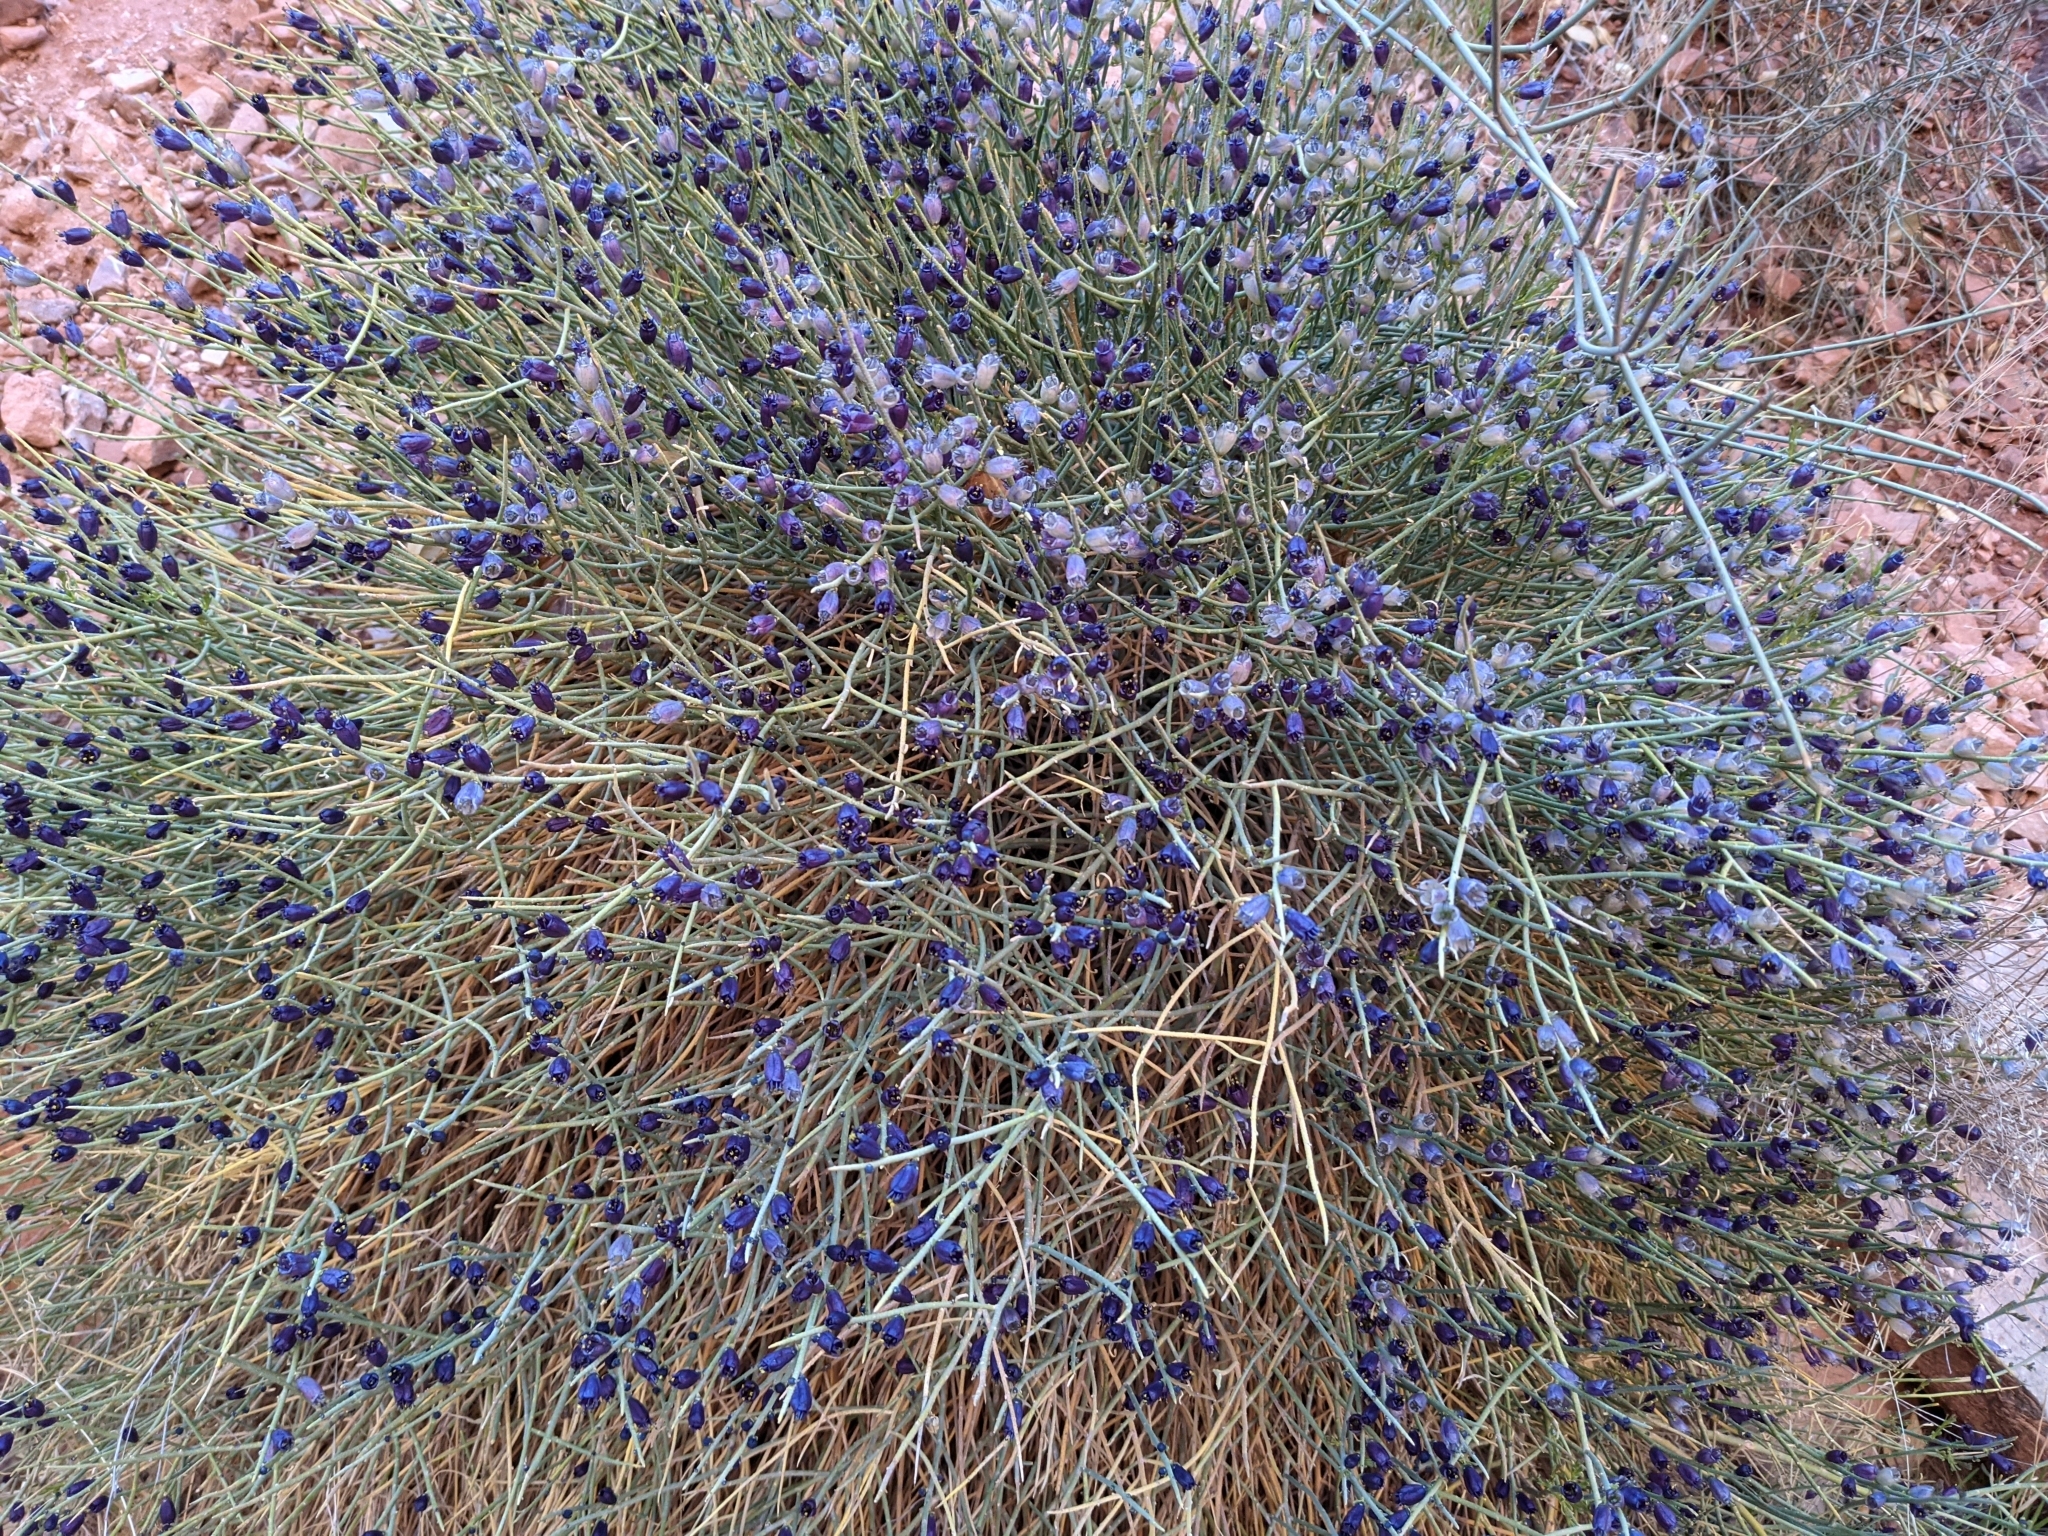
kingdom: Plantae
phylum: Tracheophyta
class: Magnoliopsida
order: Sapindales
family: Rutaceae
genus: Thamnosma
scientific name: Thamnosma montana
